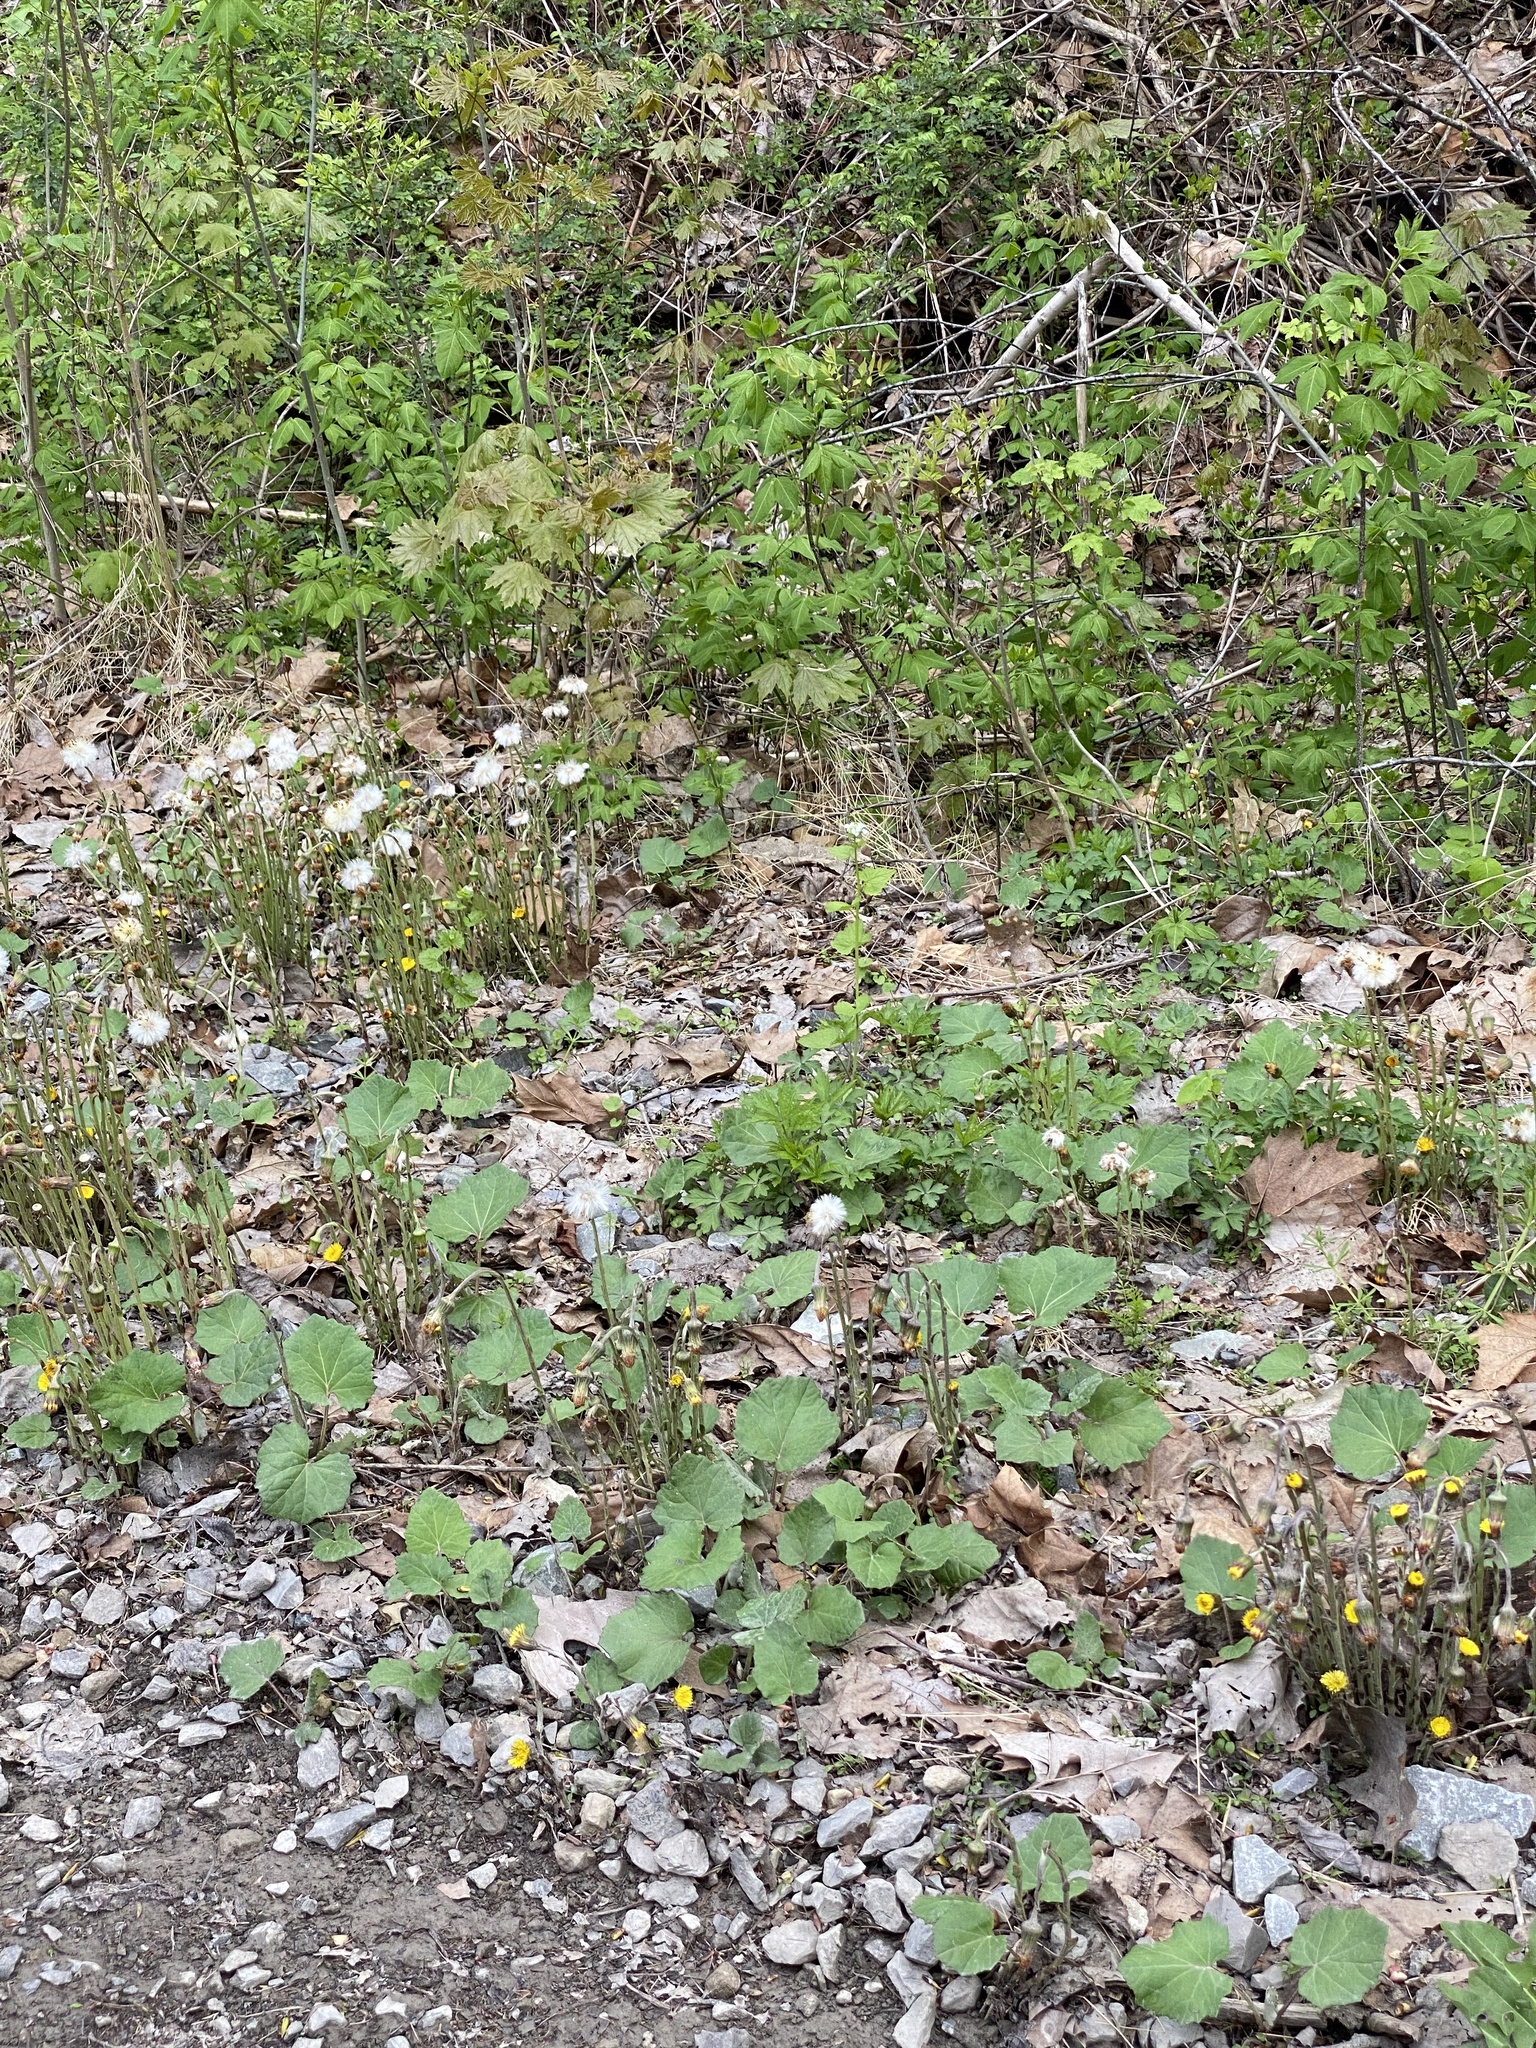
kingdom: Plantae
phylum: Tracheophyta
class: Magnoliopsida
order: Asterales
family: Asteraceae
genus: Tussilago
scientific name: Tussilago farfara
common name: Coltsfoot
